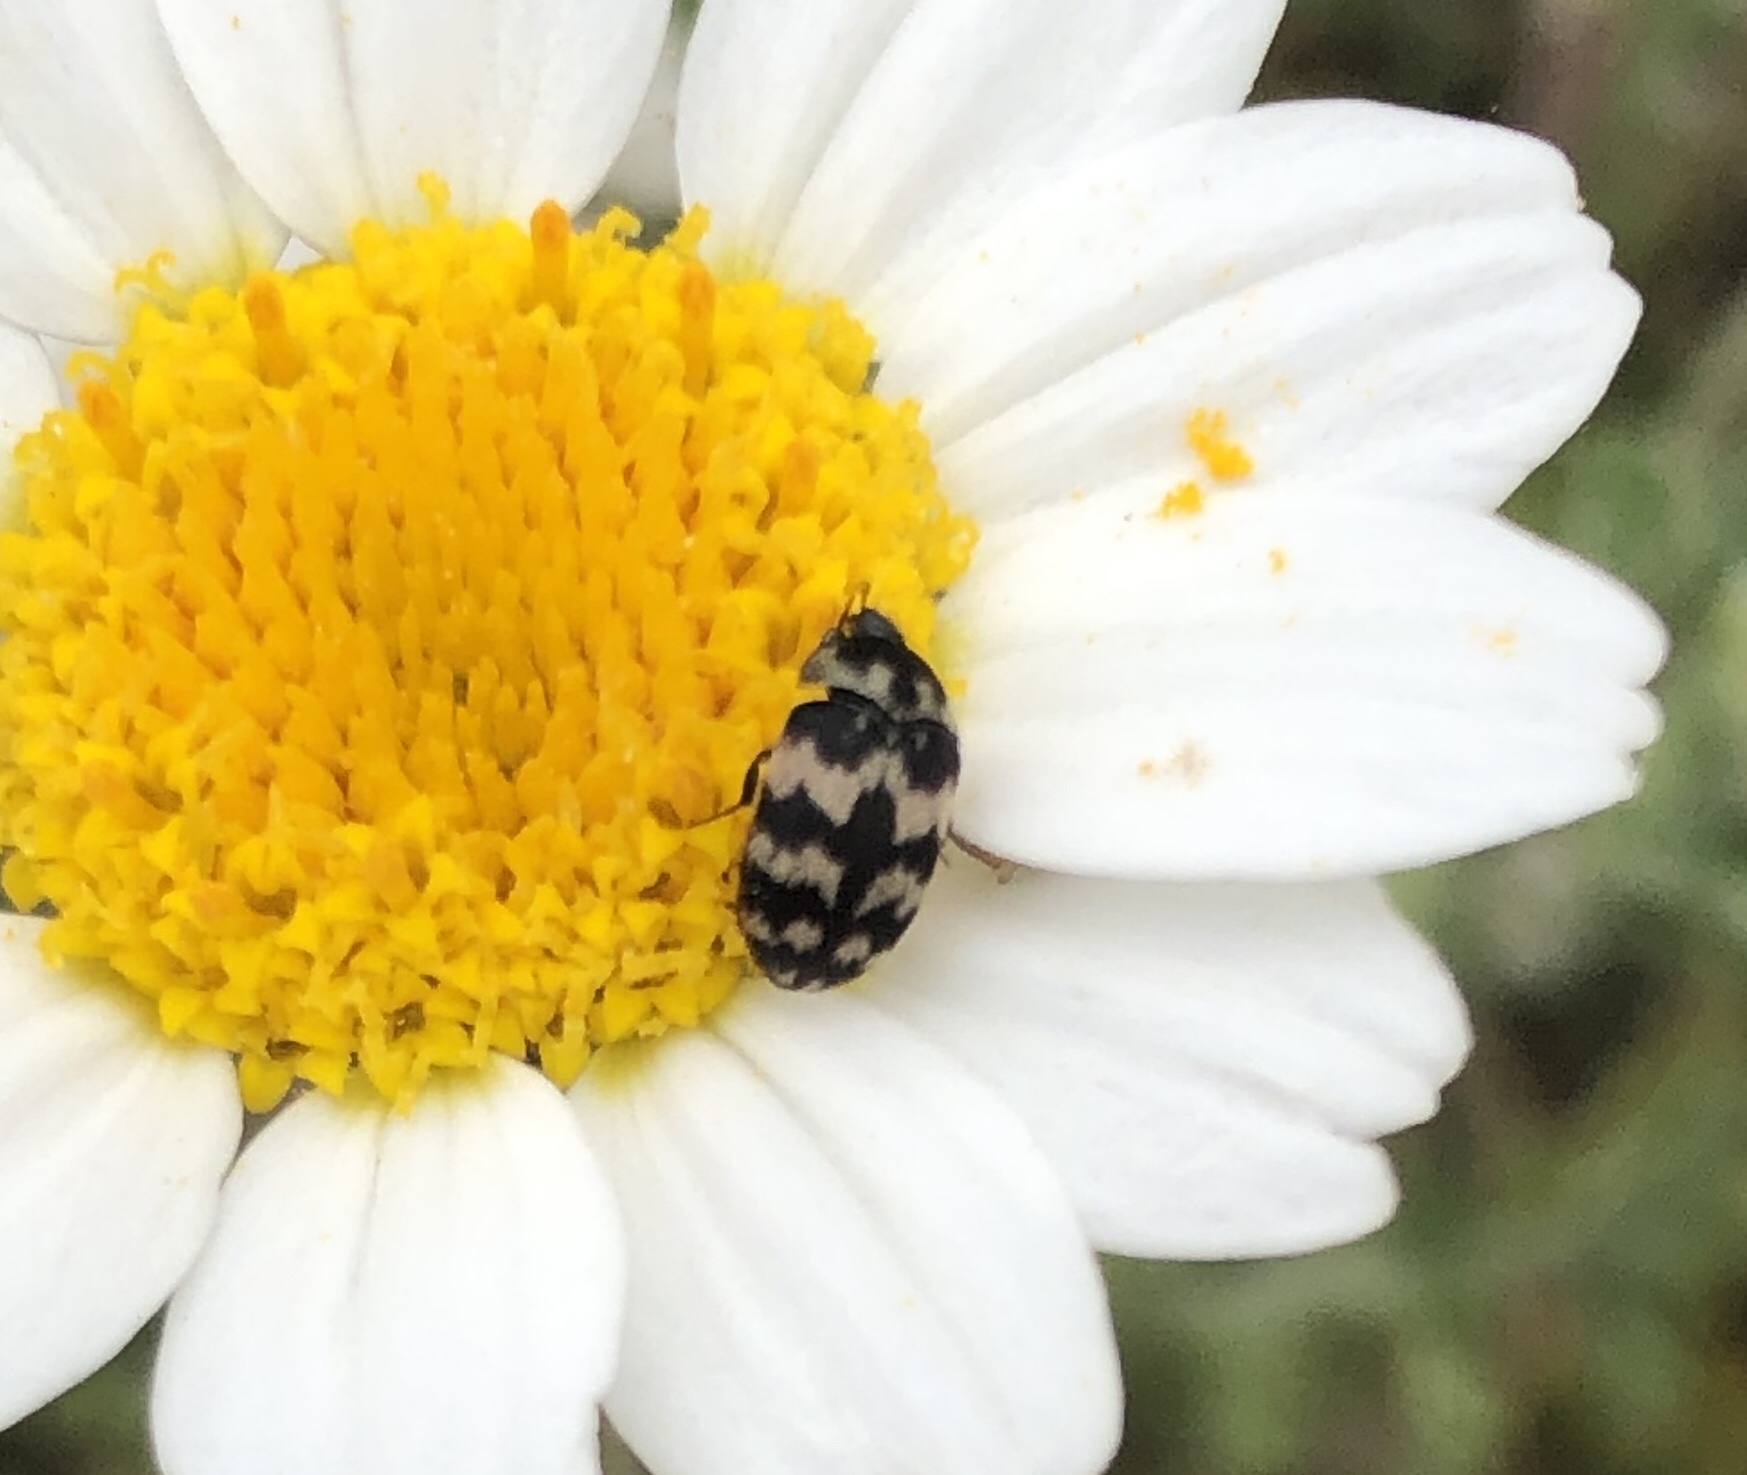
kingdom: Animalia
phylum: Arthropoda
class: Insecta
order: Coleoptera
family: Dermestidae
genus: Attagenus
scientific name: Attagenus trifasciatus
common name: Carpet beetle
